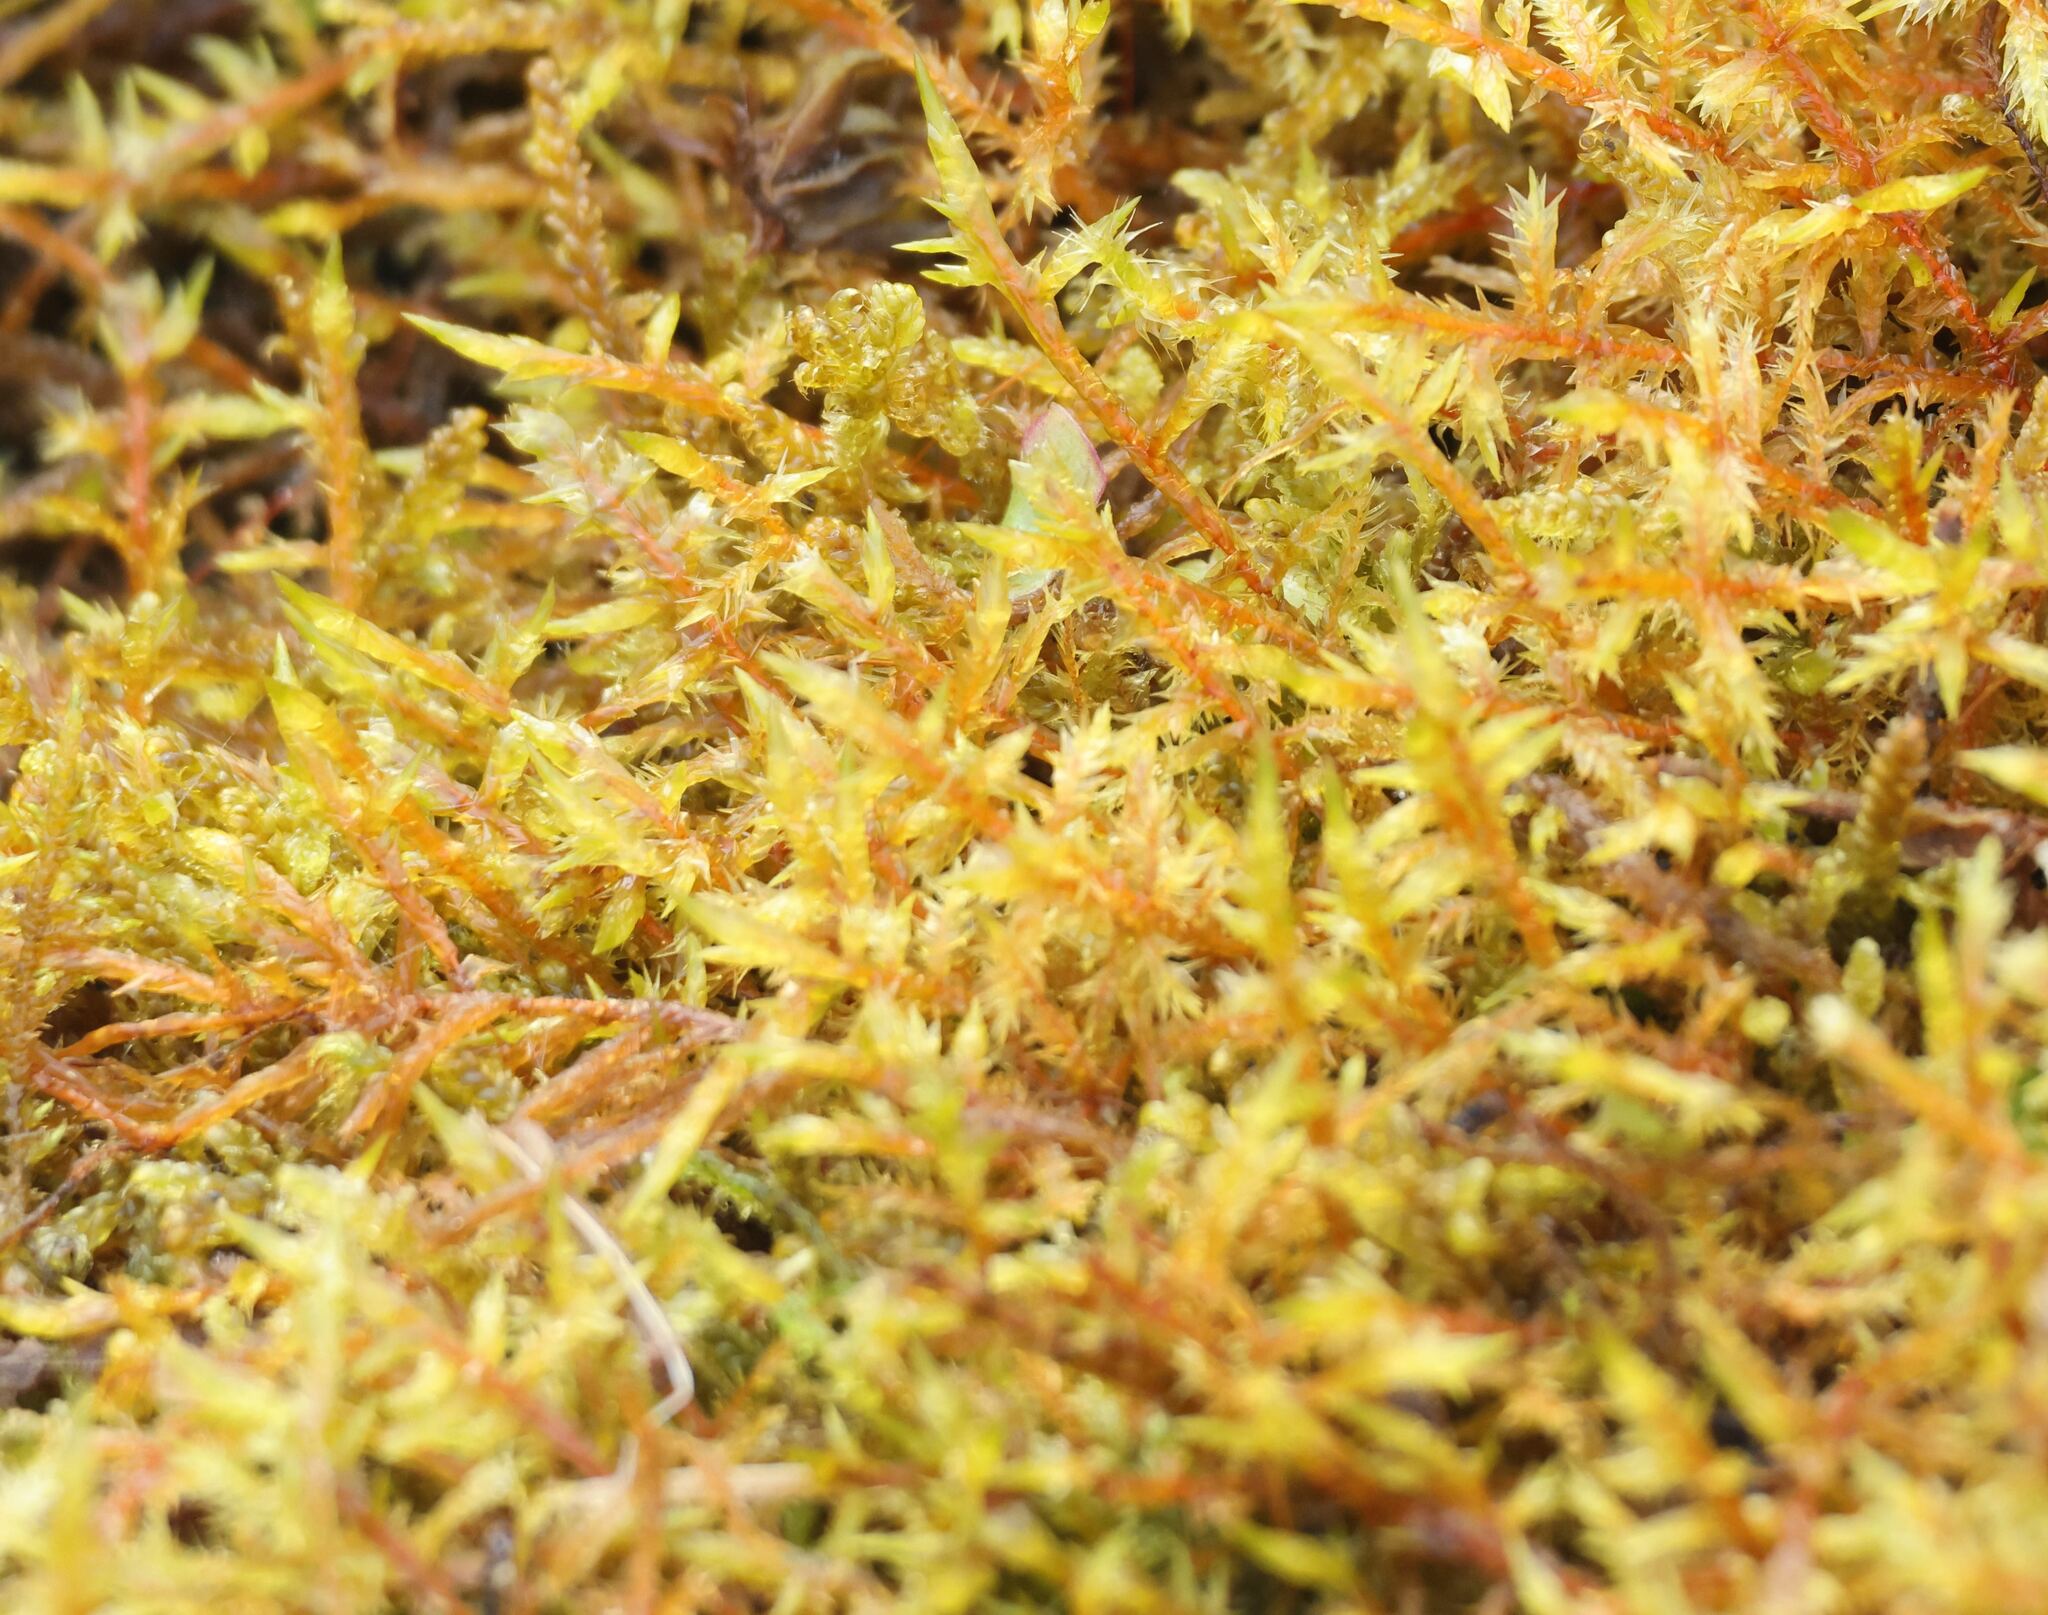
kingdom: Plantae
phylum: Bryophyta
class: Bryopsida
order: Hypnales
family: Pylaisiaceae
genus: Calliergonella
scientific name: Calliergonella cuspidata
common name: Common large wetland moss
